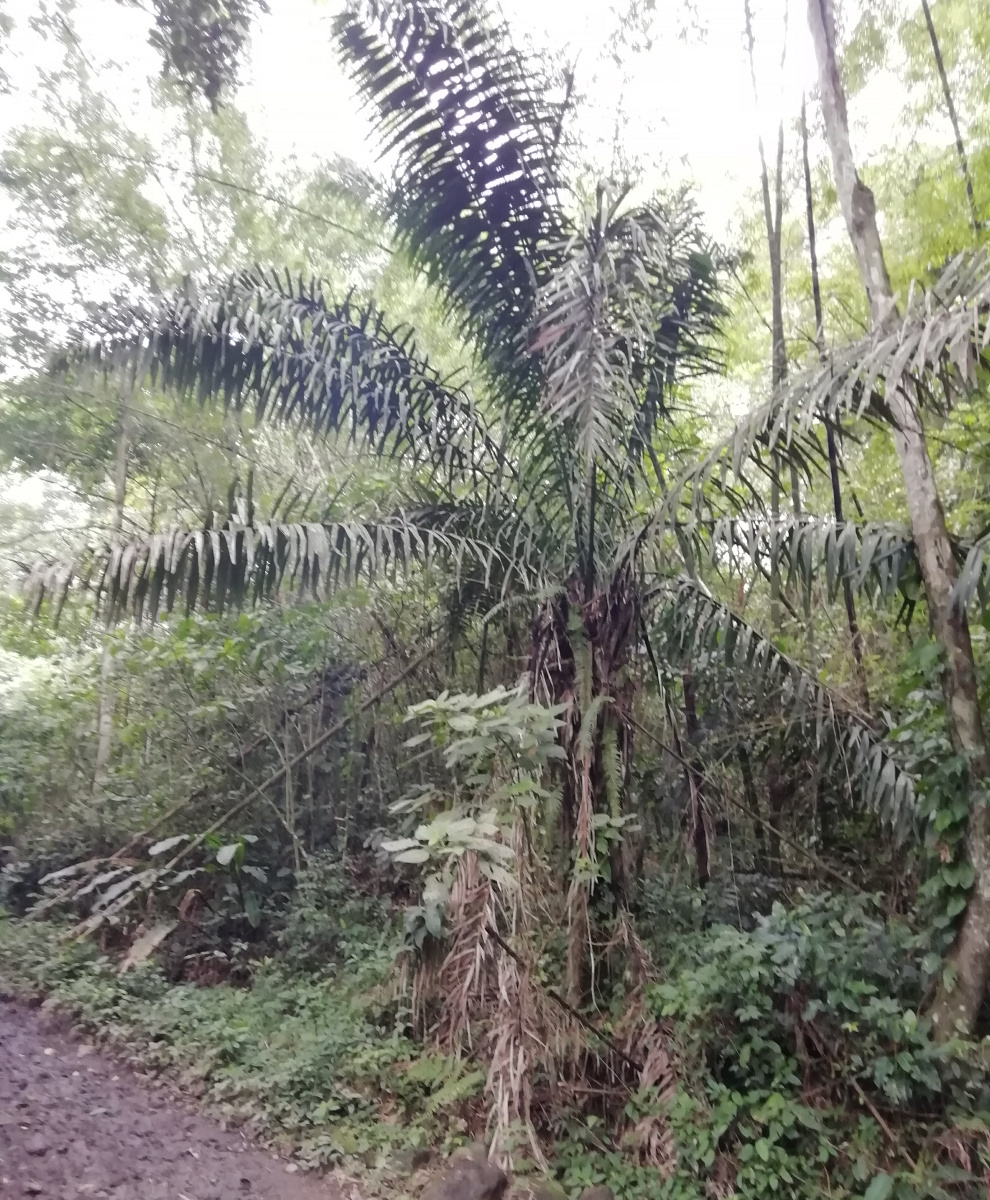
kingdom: Plantae
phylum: Tracheophyta
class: Liliopsida
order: Arecales
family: Arecaceae
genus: Phytelephas
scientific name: Phytelephas aequatorialis
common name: Ivory palm
